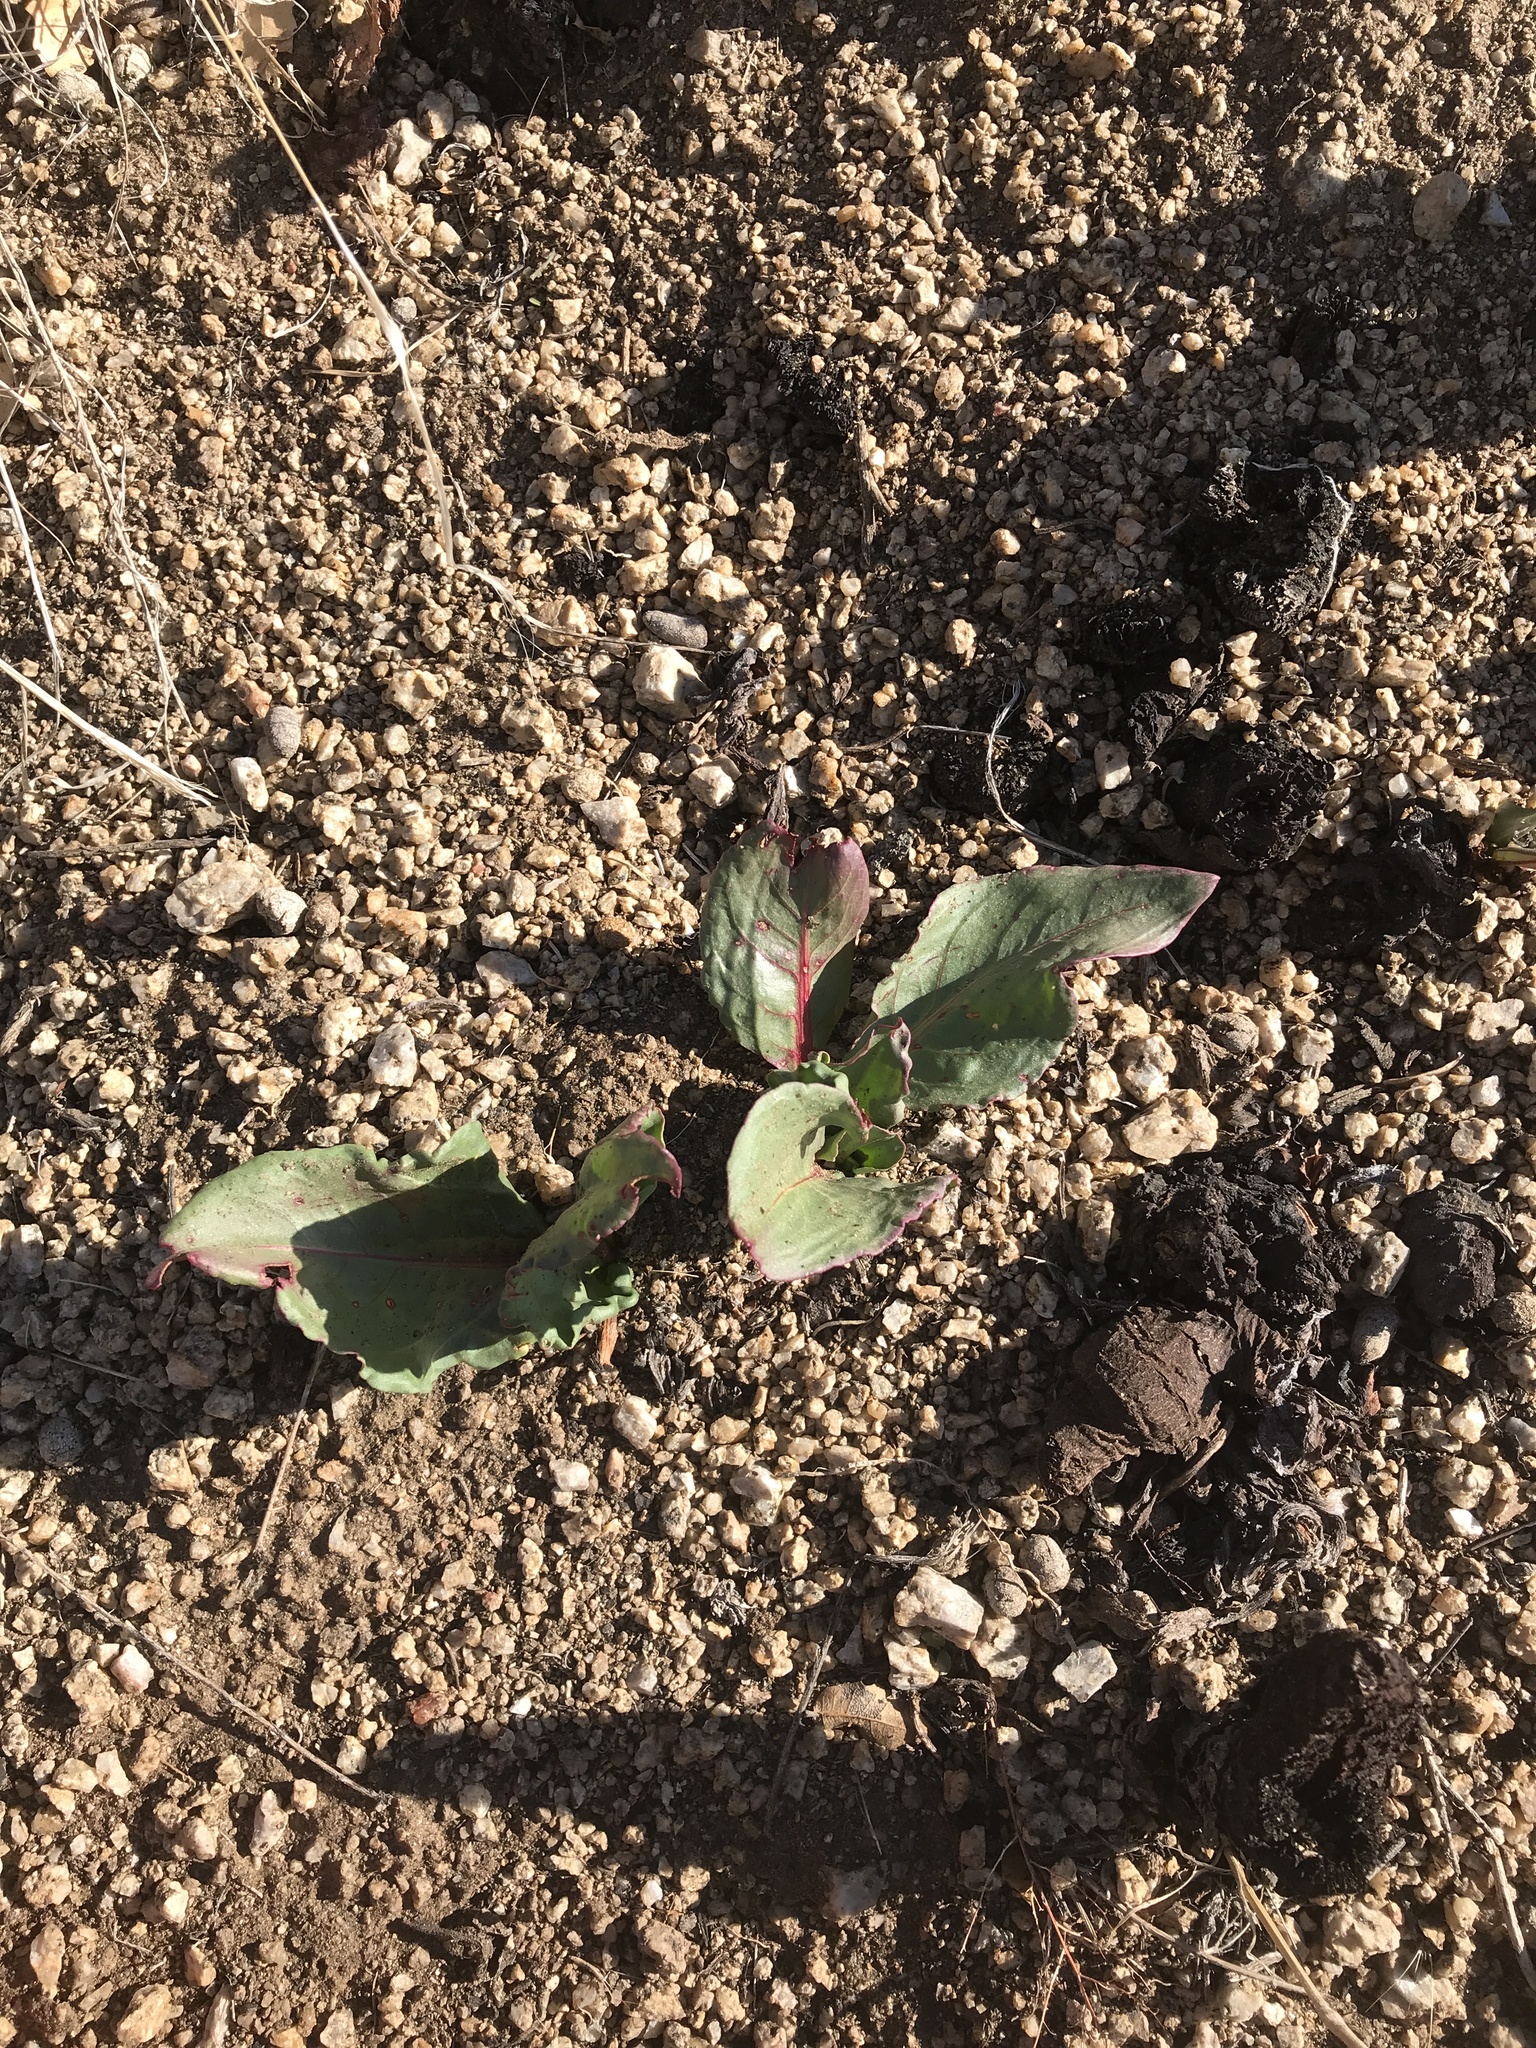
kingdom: Plantae
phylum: Tracheophyta
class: Magnoliopsida
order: Caryophyllales
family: Polygonaceae
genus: Rumex
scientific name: Rumex hymenosepalus
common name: Ganagra
